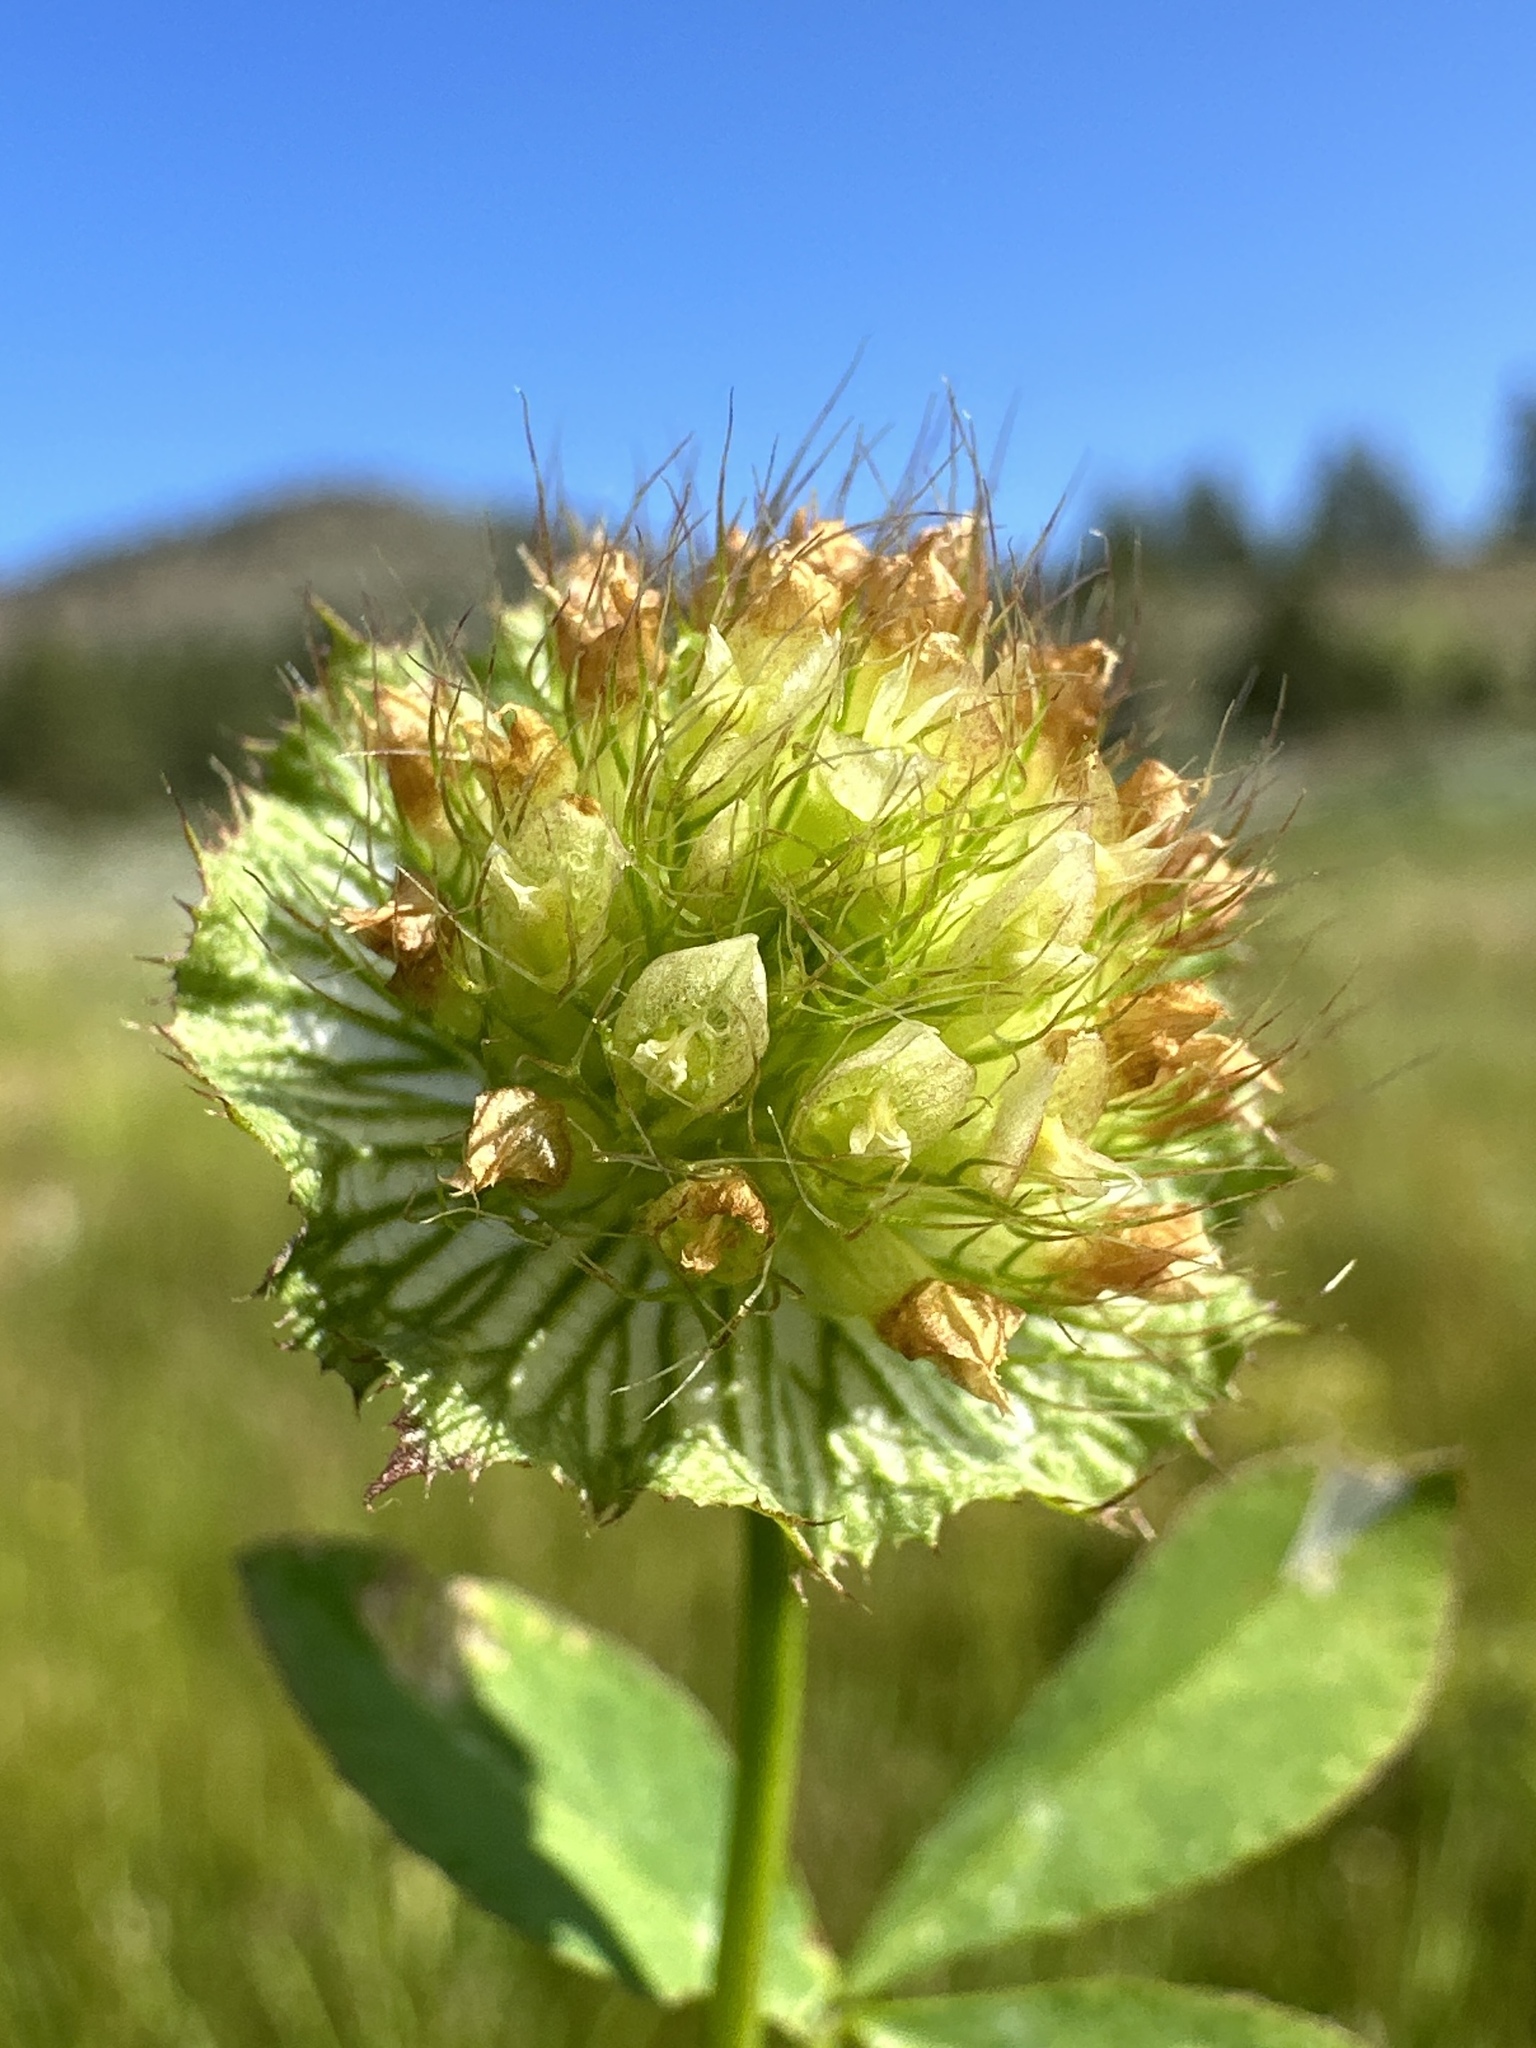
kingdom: Plantae
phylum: Tracheophyta
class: Magnoliopsida
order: Fabales
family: Fabaceae
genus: Trifolium
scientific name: Trifolium cyathiferum
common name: Bowl clover
